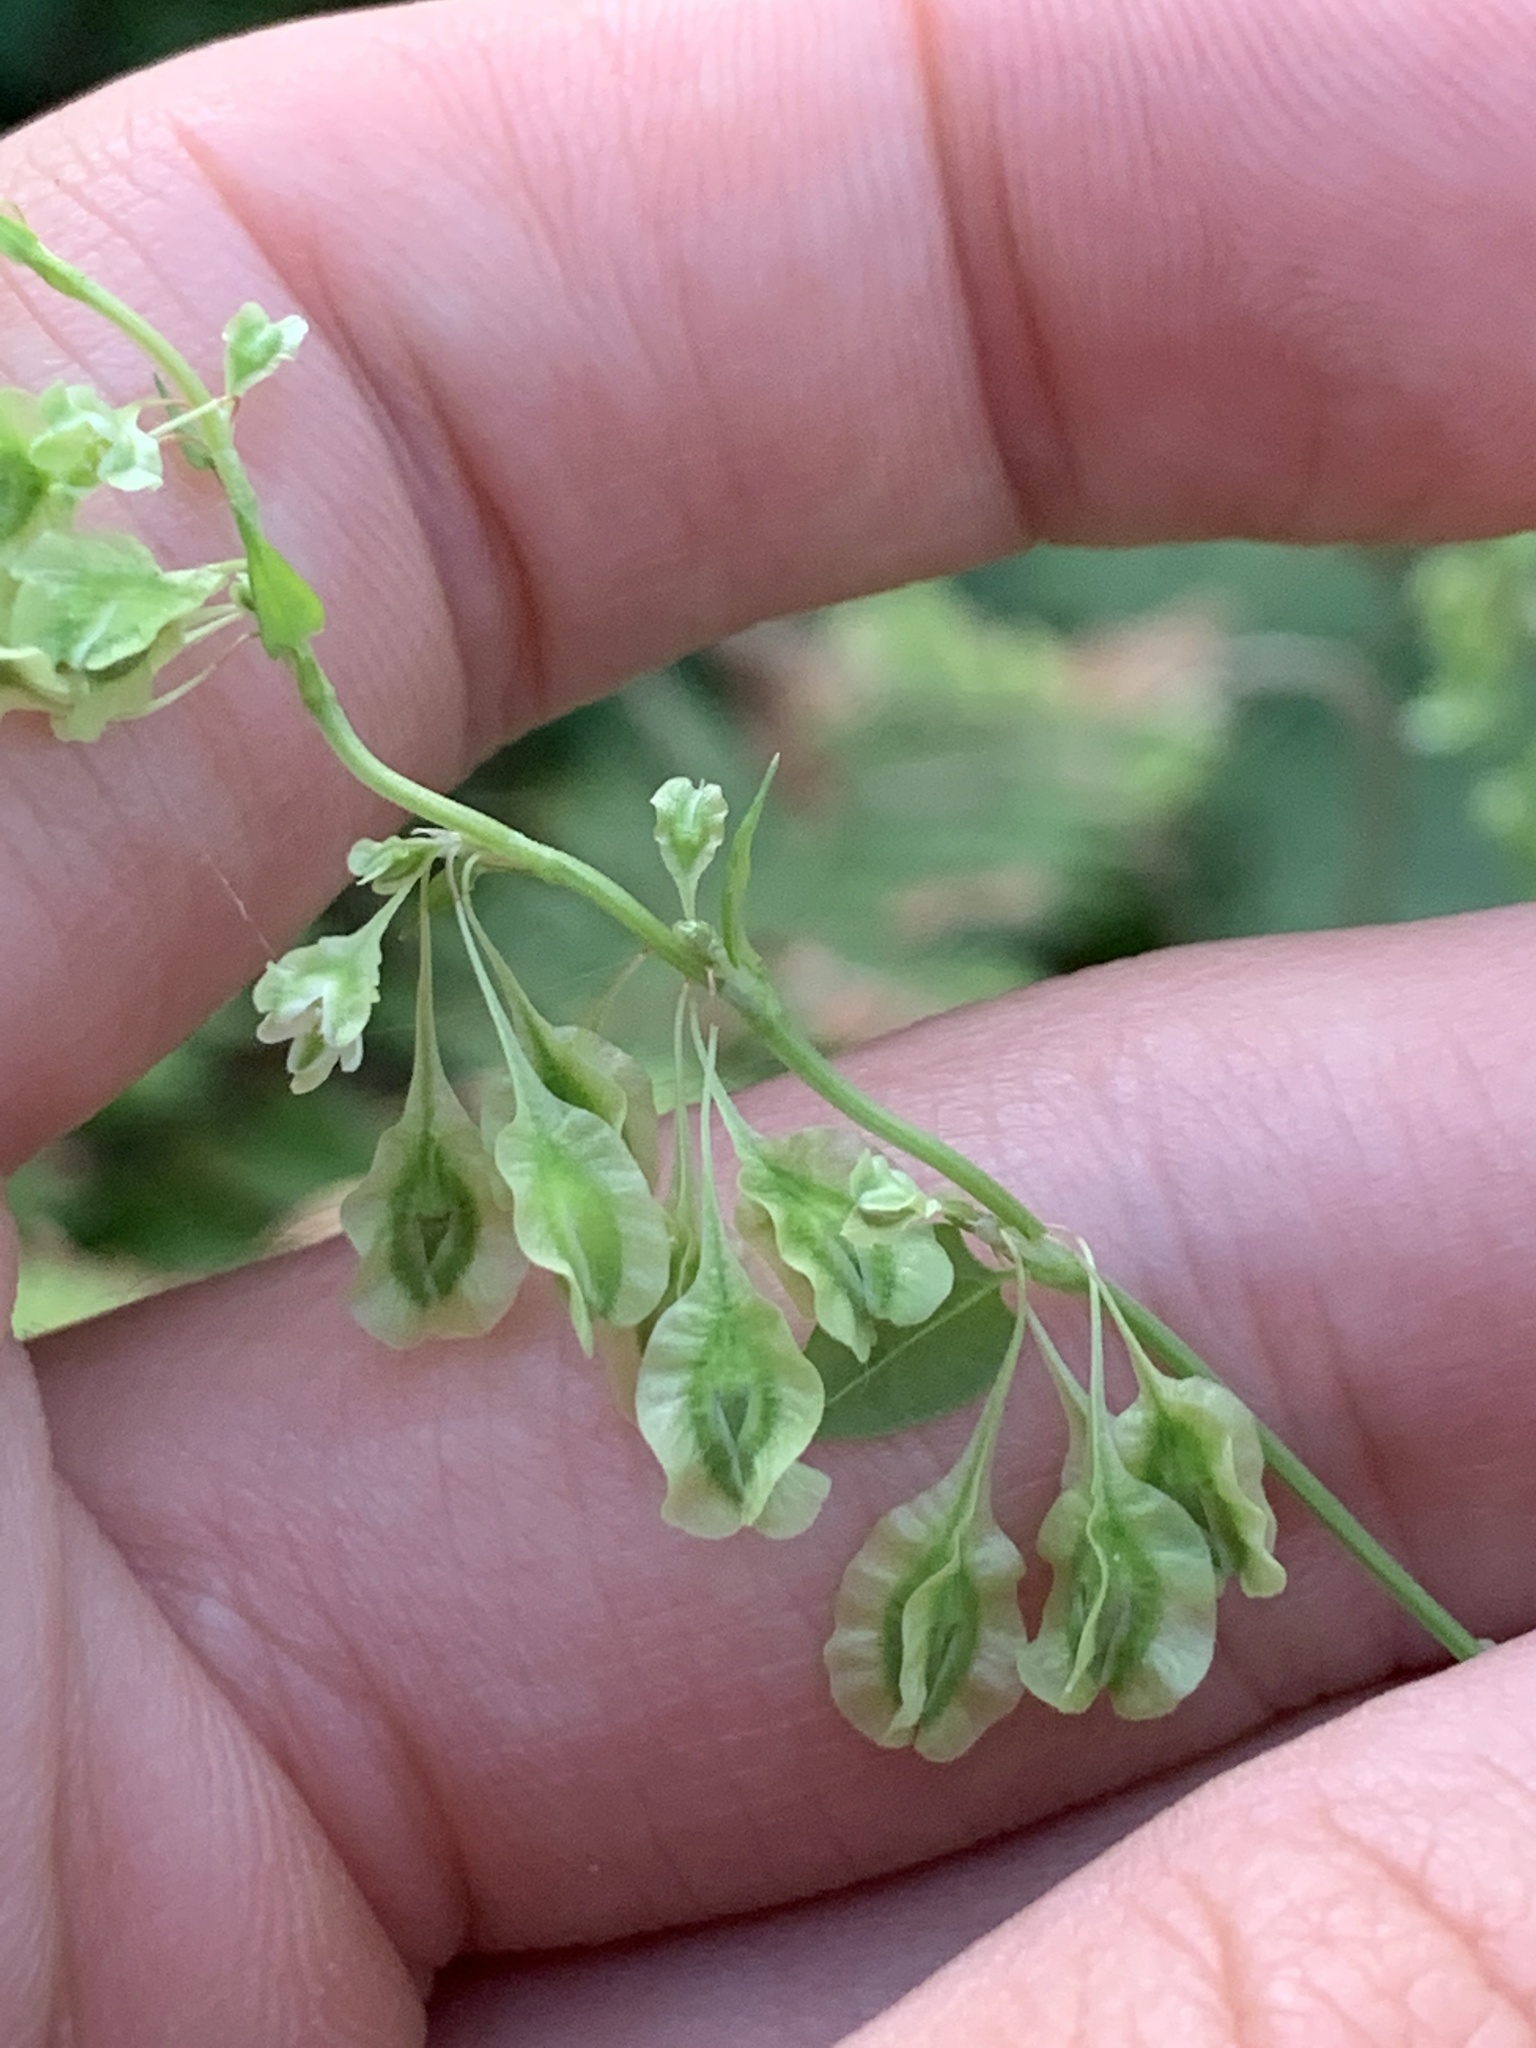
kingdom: Plantae
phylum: Tracheophyta
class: Magnoliopsida
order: Caryophyllales
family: Polygonaceae
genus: Fallopia
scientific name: Fallopia dumetorum
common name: Copse-bindweed
